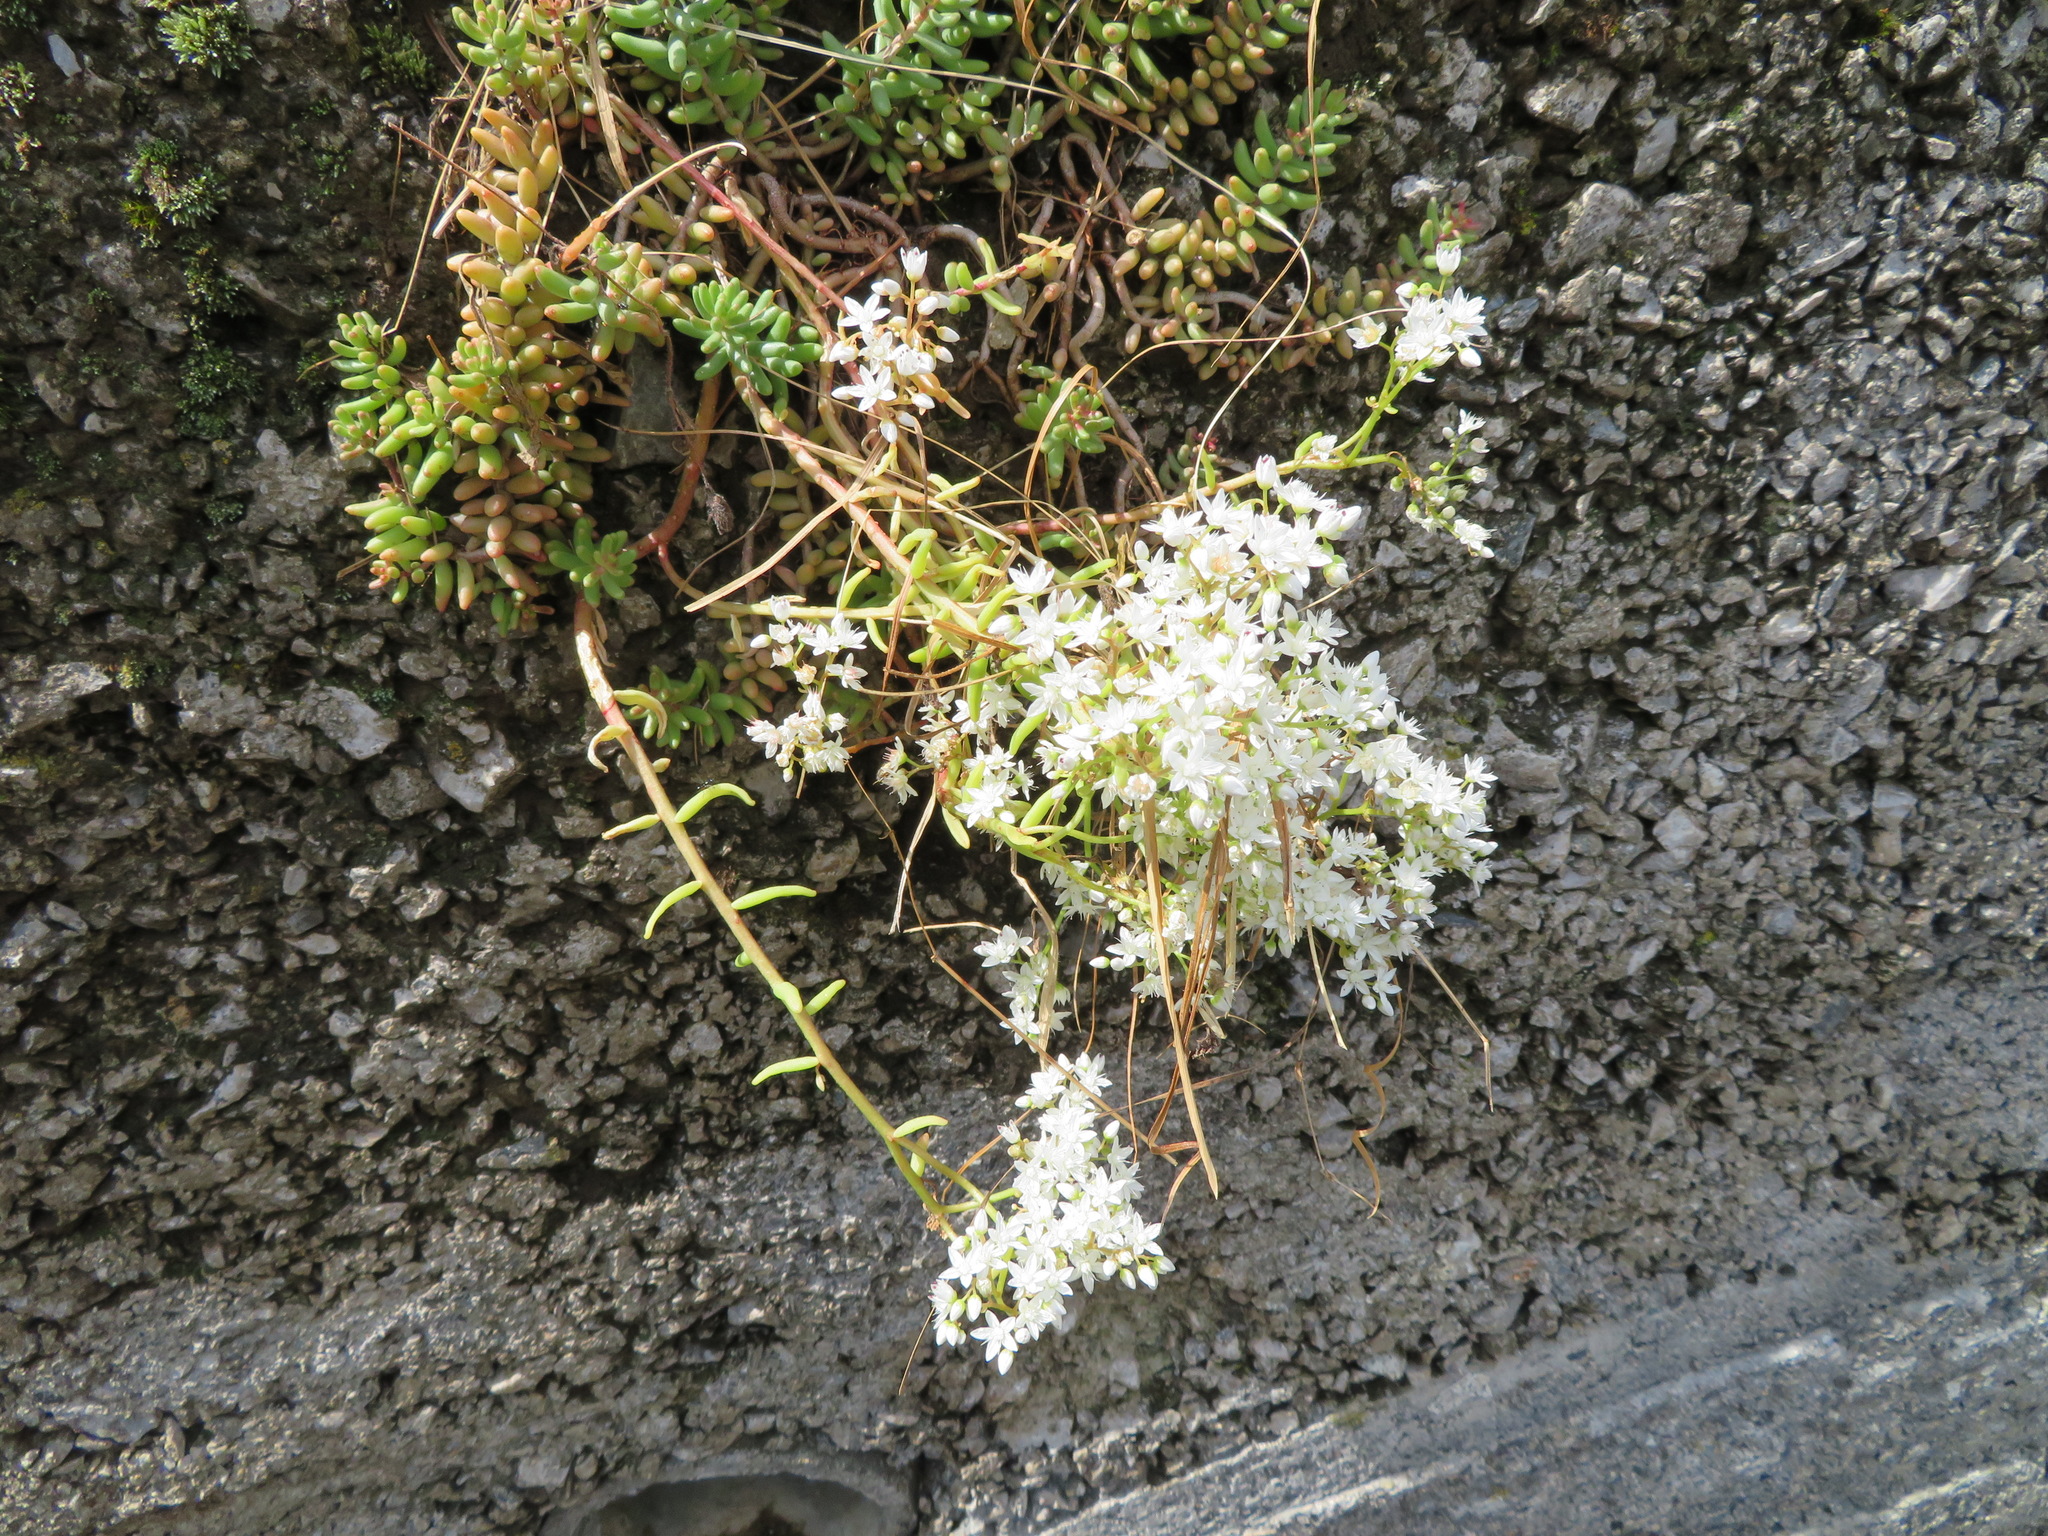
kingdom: Plantae
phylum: Tracheophyta
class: Magnoliopsida
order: Saxifragales
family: Crassulaceae
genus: Sedum
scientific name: Sedum album
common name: White stonecrop
